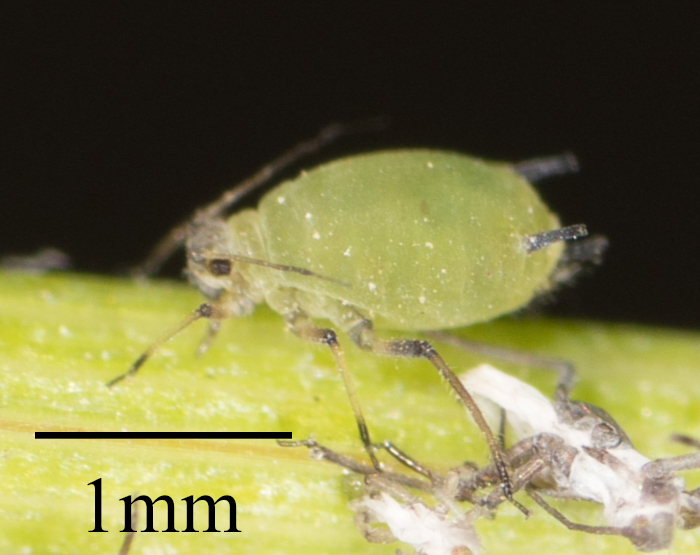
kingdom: Animalia
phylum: Arthropoda
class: Insecta
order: Hemiptera
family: Aphididae
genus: Aphis
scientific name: Aphis spiraecola
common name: Spirea aphid
